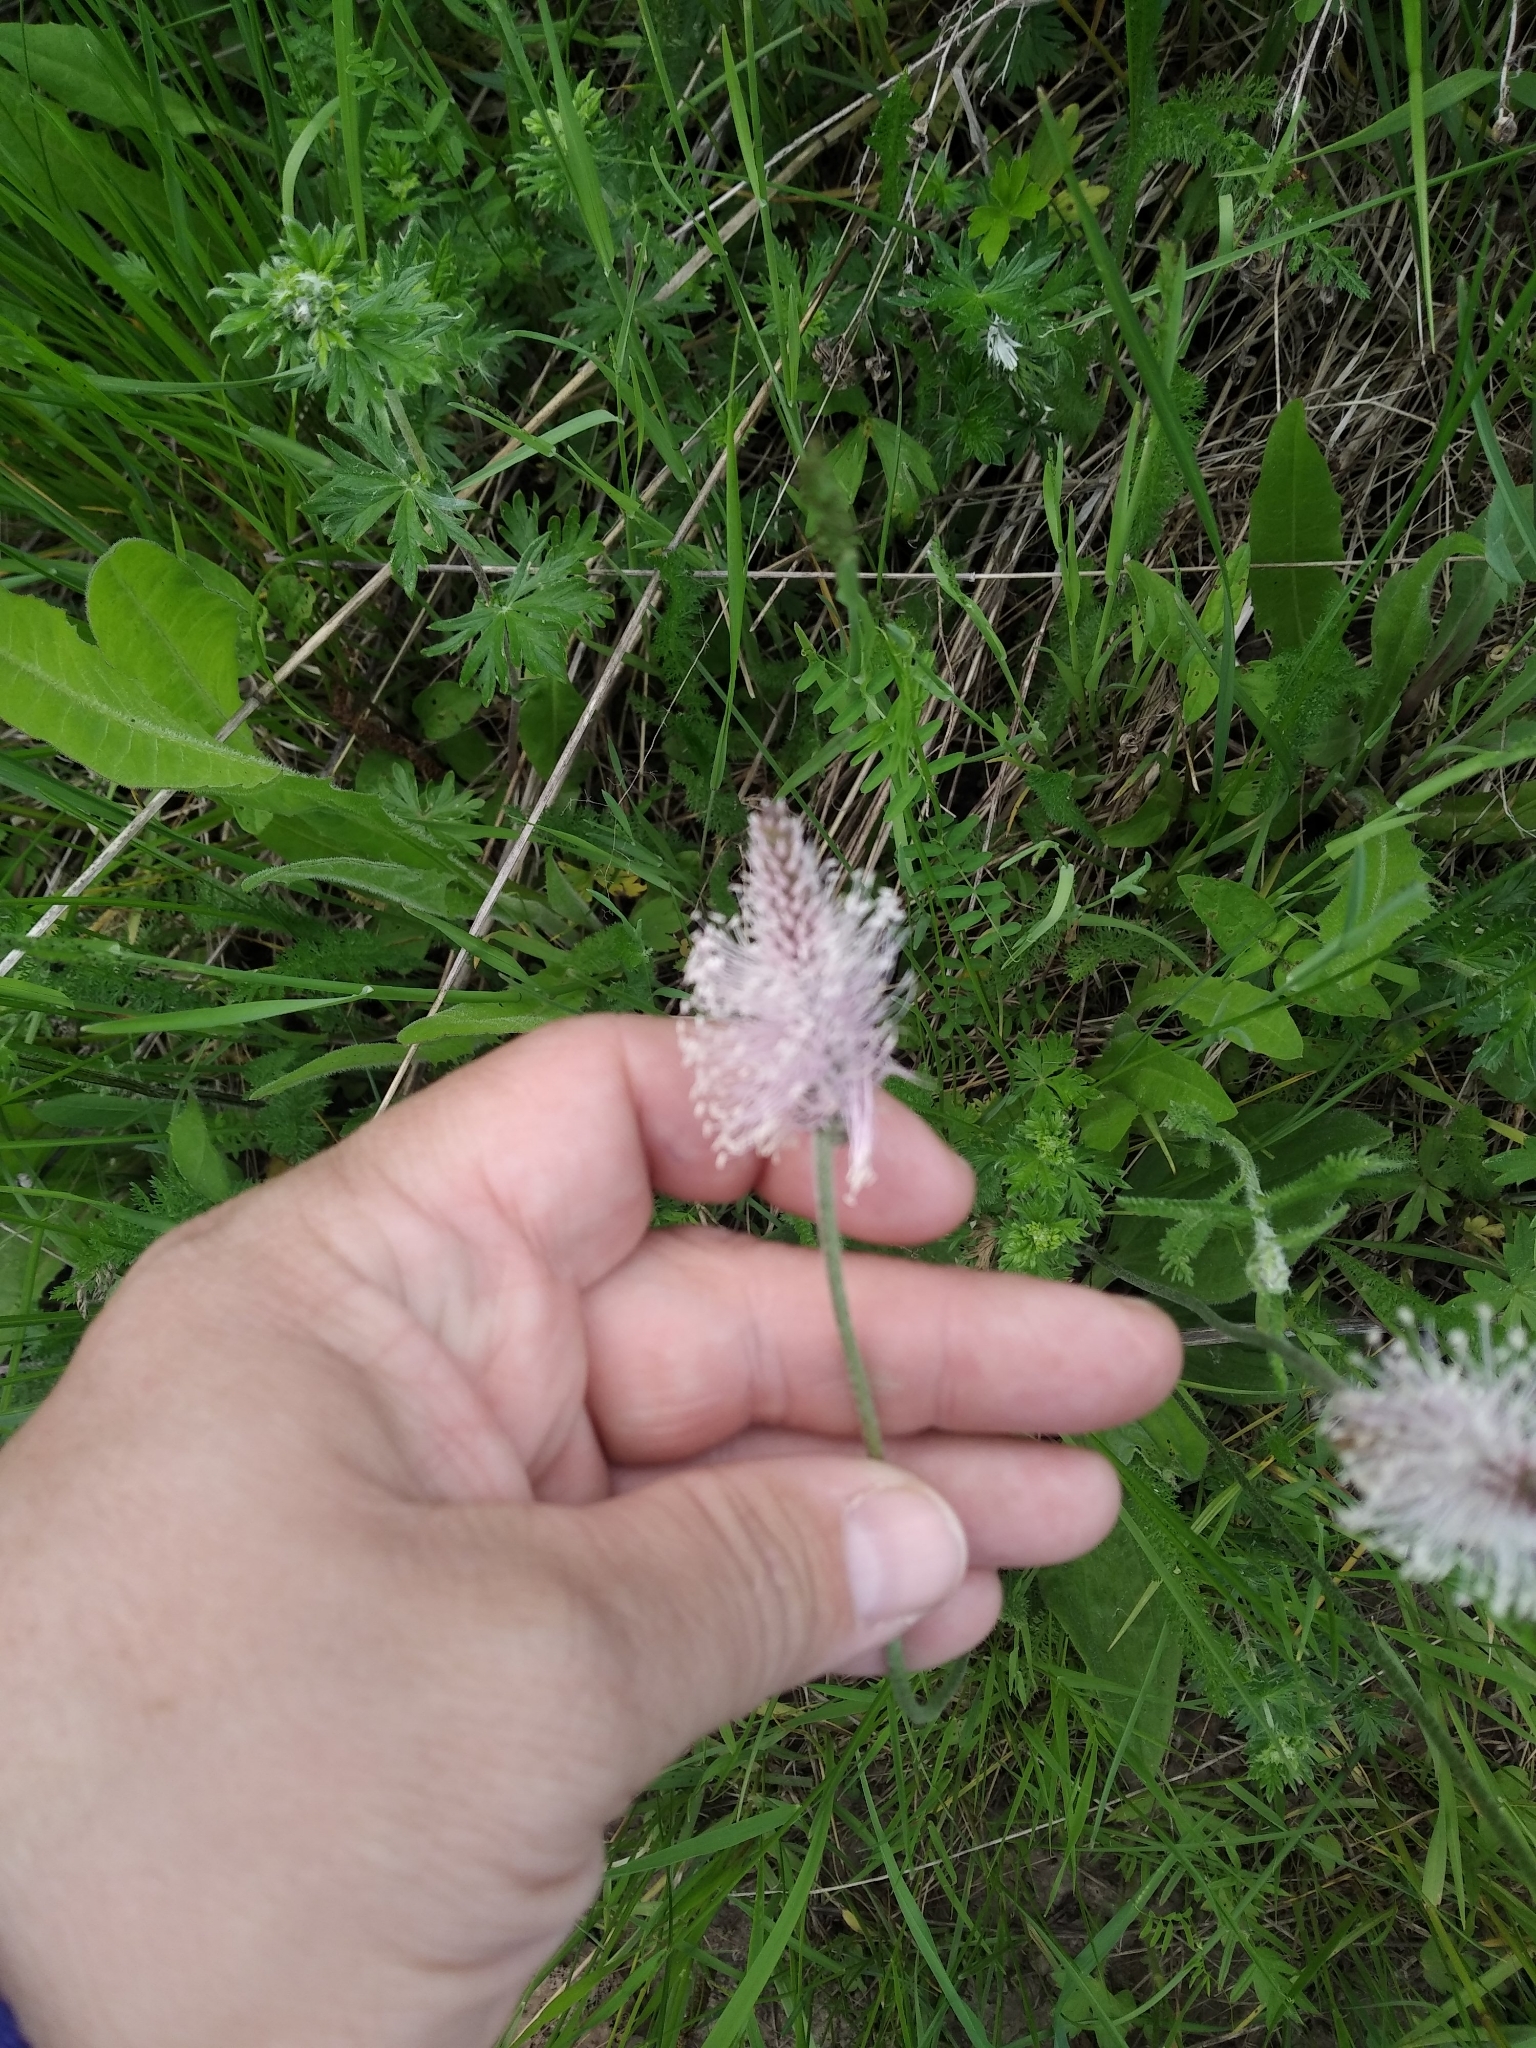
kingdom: Plantae
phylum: Tracheophyta
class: Magnoliopsida
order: Lamiales
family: Plantaginaceae
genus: Plantago
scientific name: Plantago media
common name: Hoary plantain
